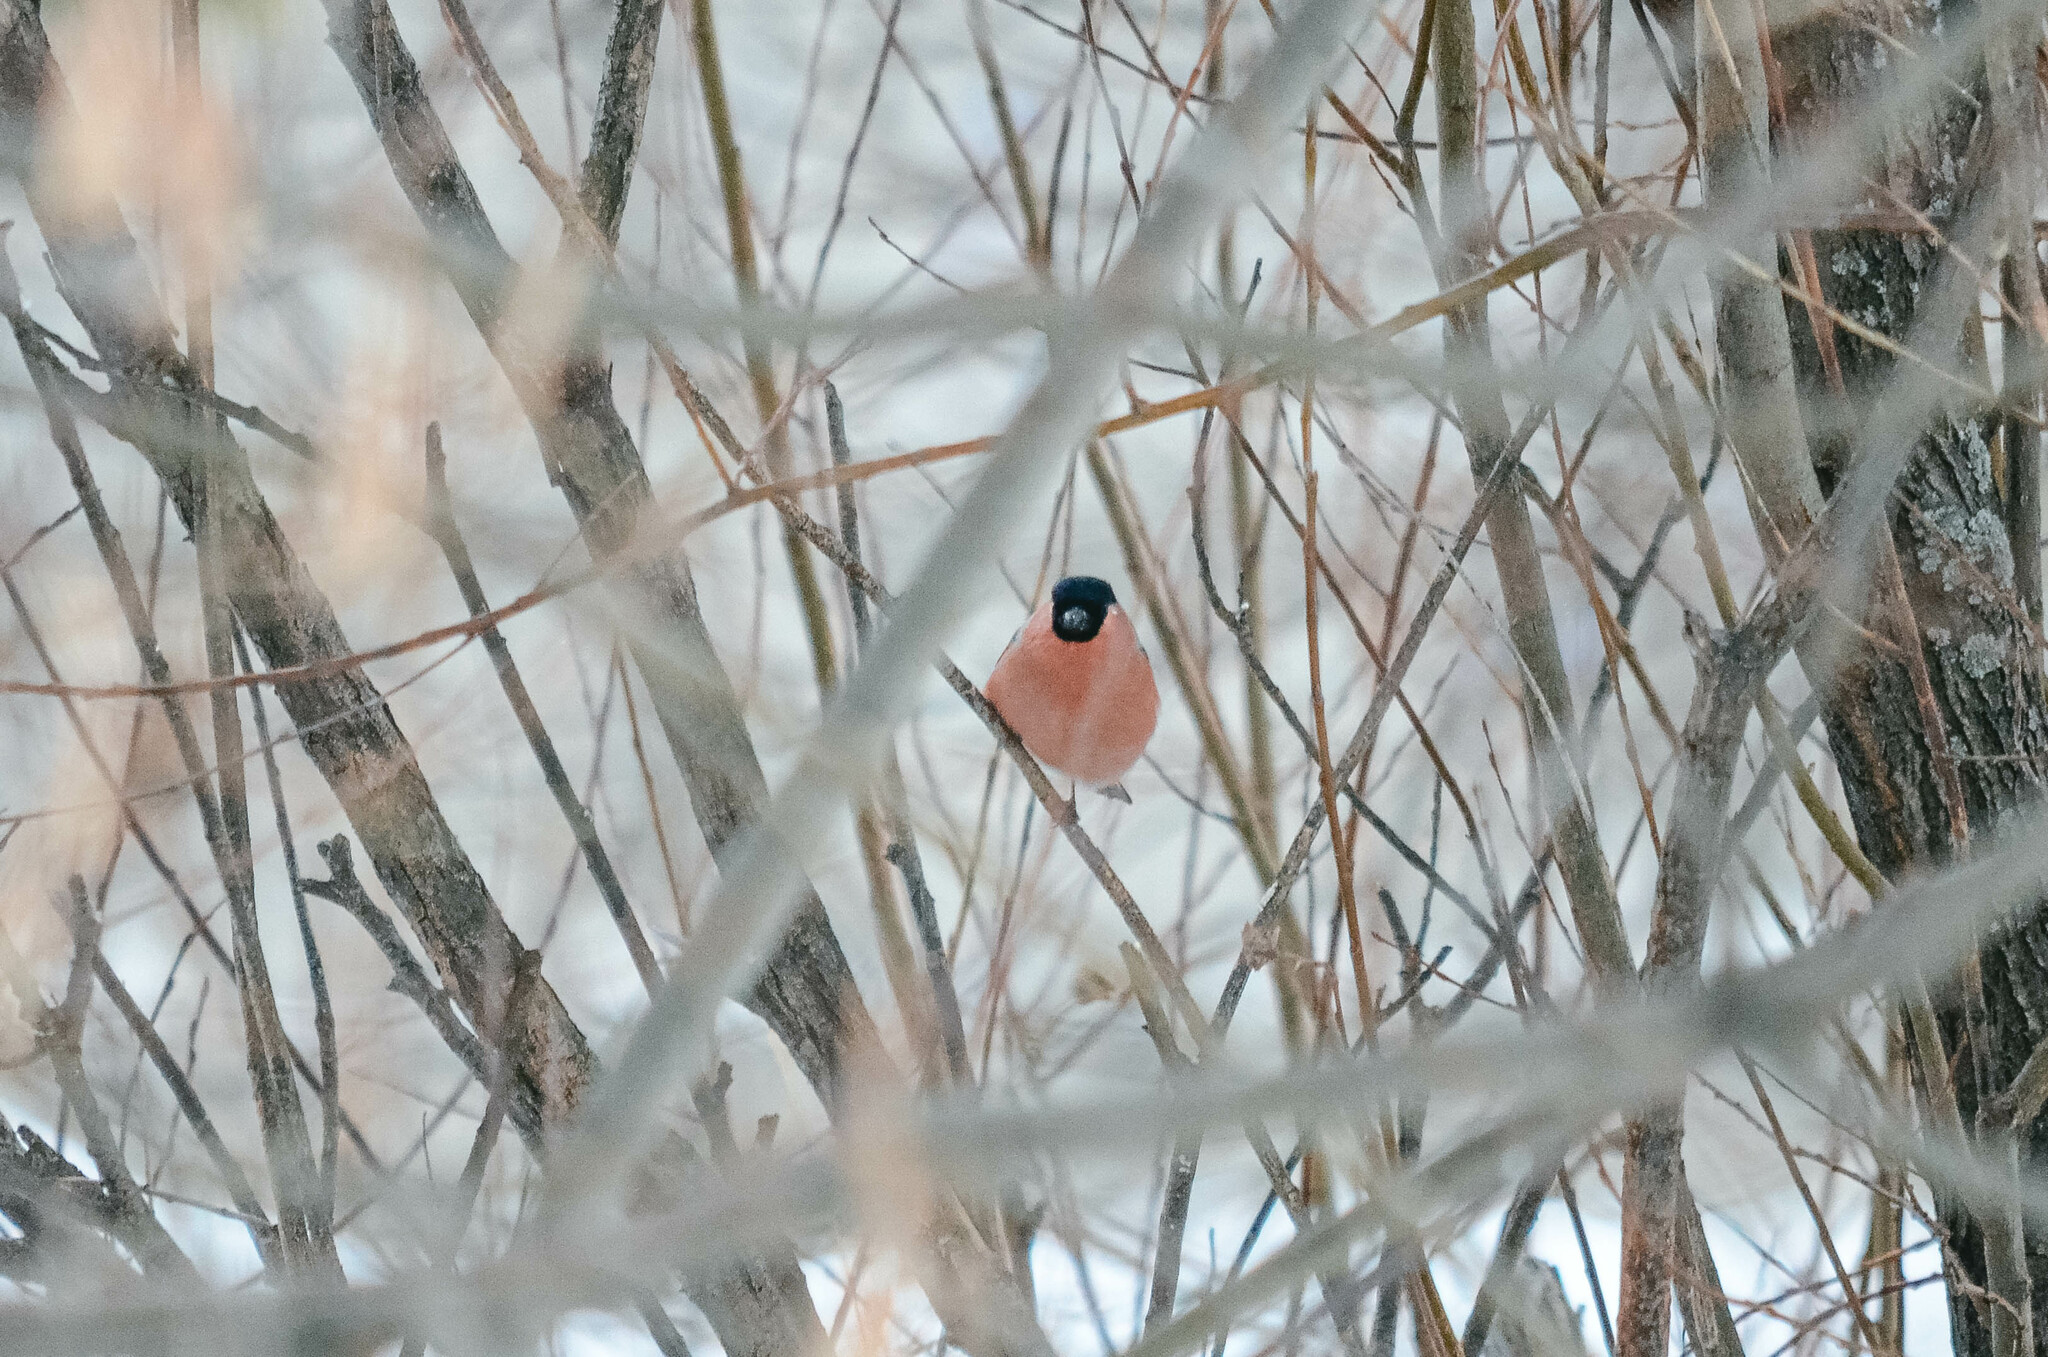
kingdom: Animalia
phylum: Chordata
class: Aves
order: Passeriformes
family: Fringillidae
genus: Pyrrhula
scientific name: Pyrrhula pyrrhula
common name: Eurasian bullfinch
